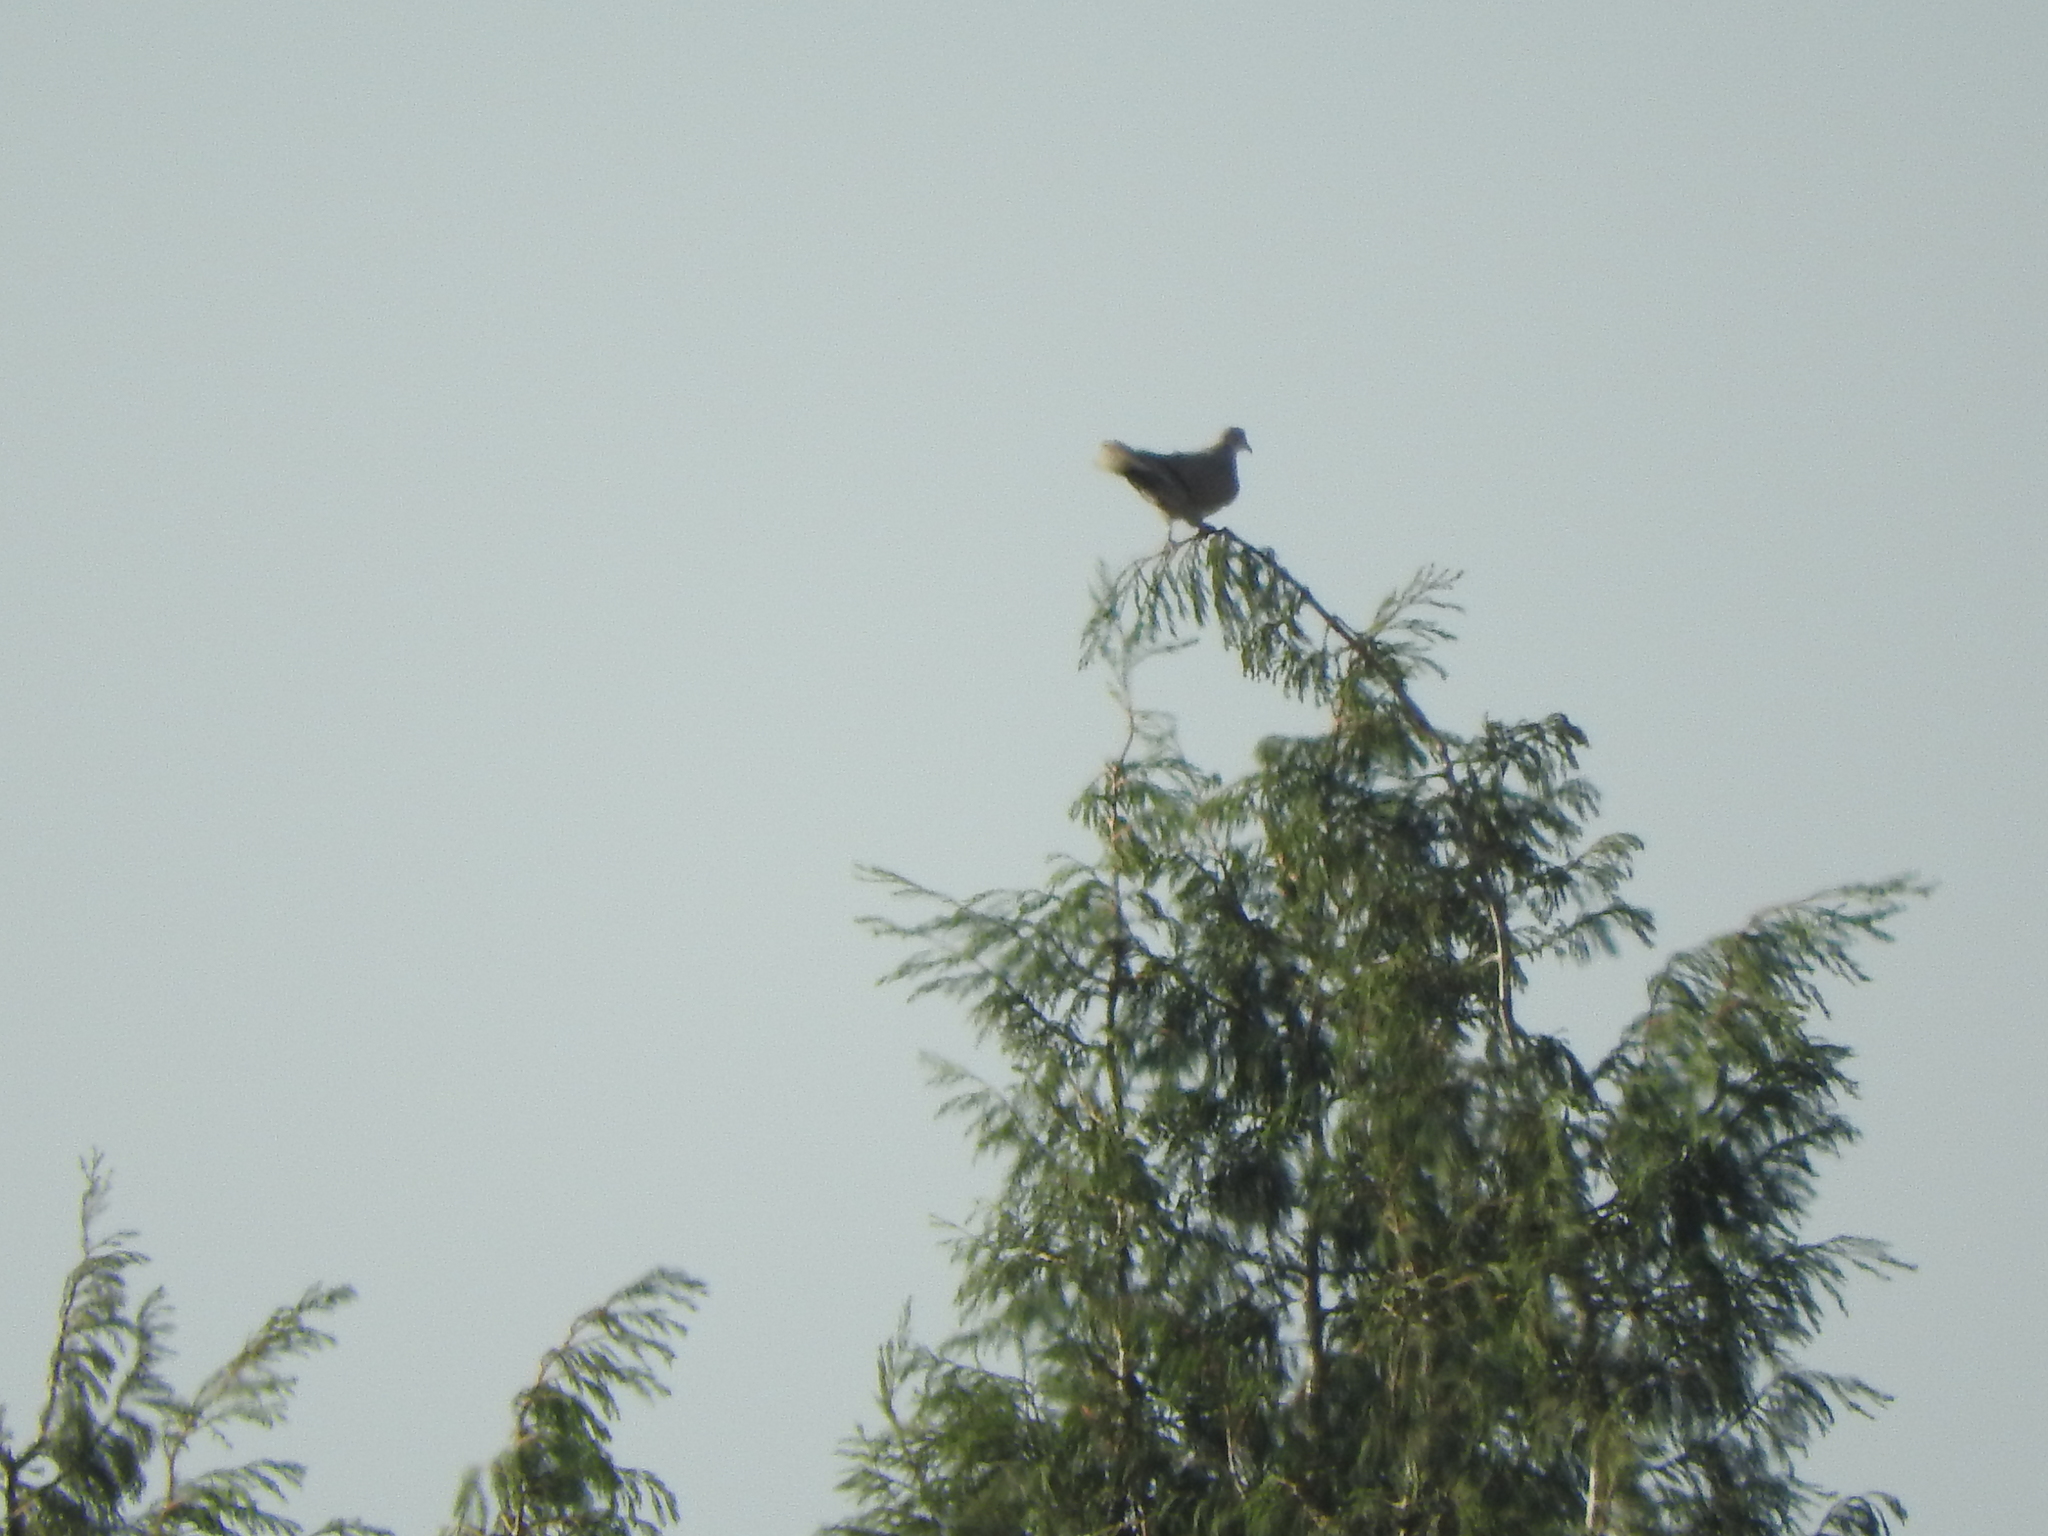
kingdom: Animalia
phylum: Chordata
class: Aves
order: Columbiformes
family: Columbidae
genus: Streptopelia
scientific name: Streptopelia decaocto
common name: Eurasian collared dove
